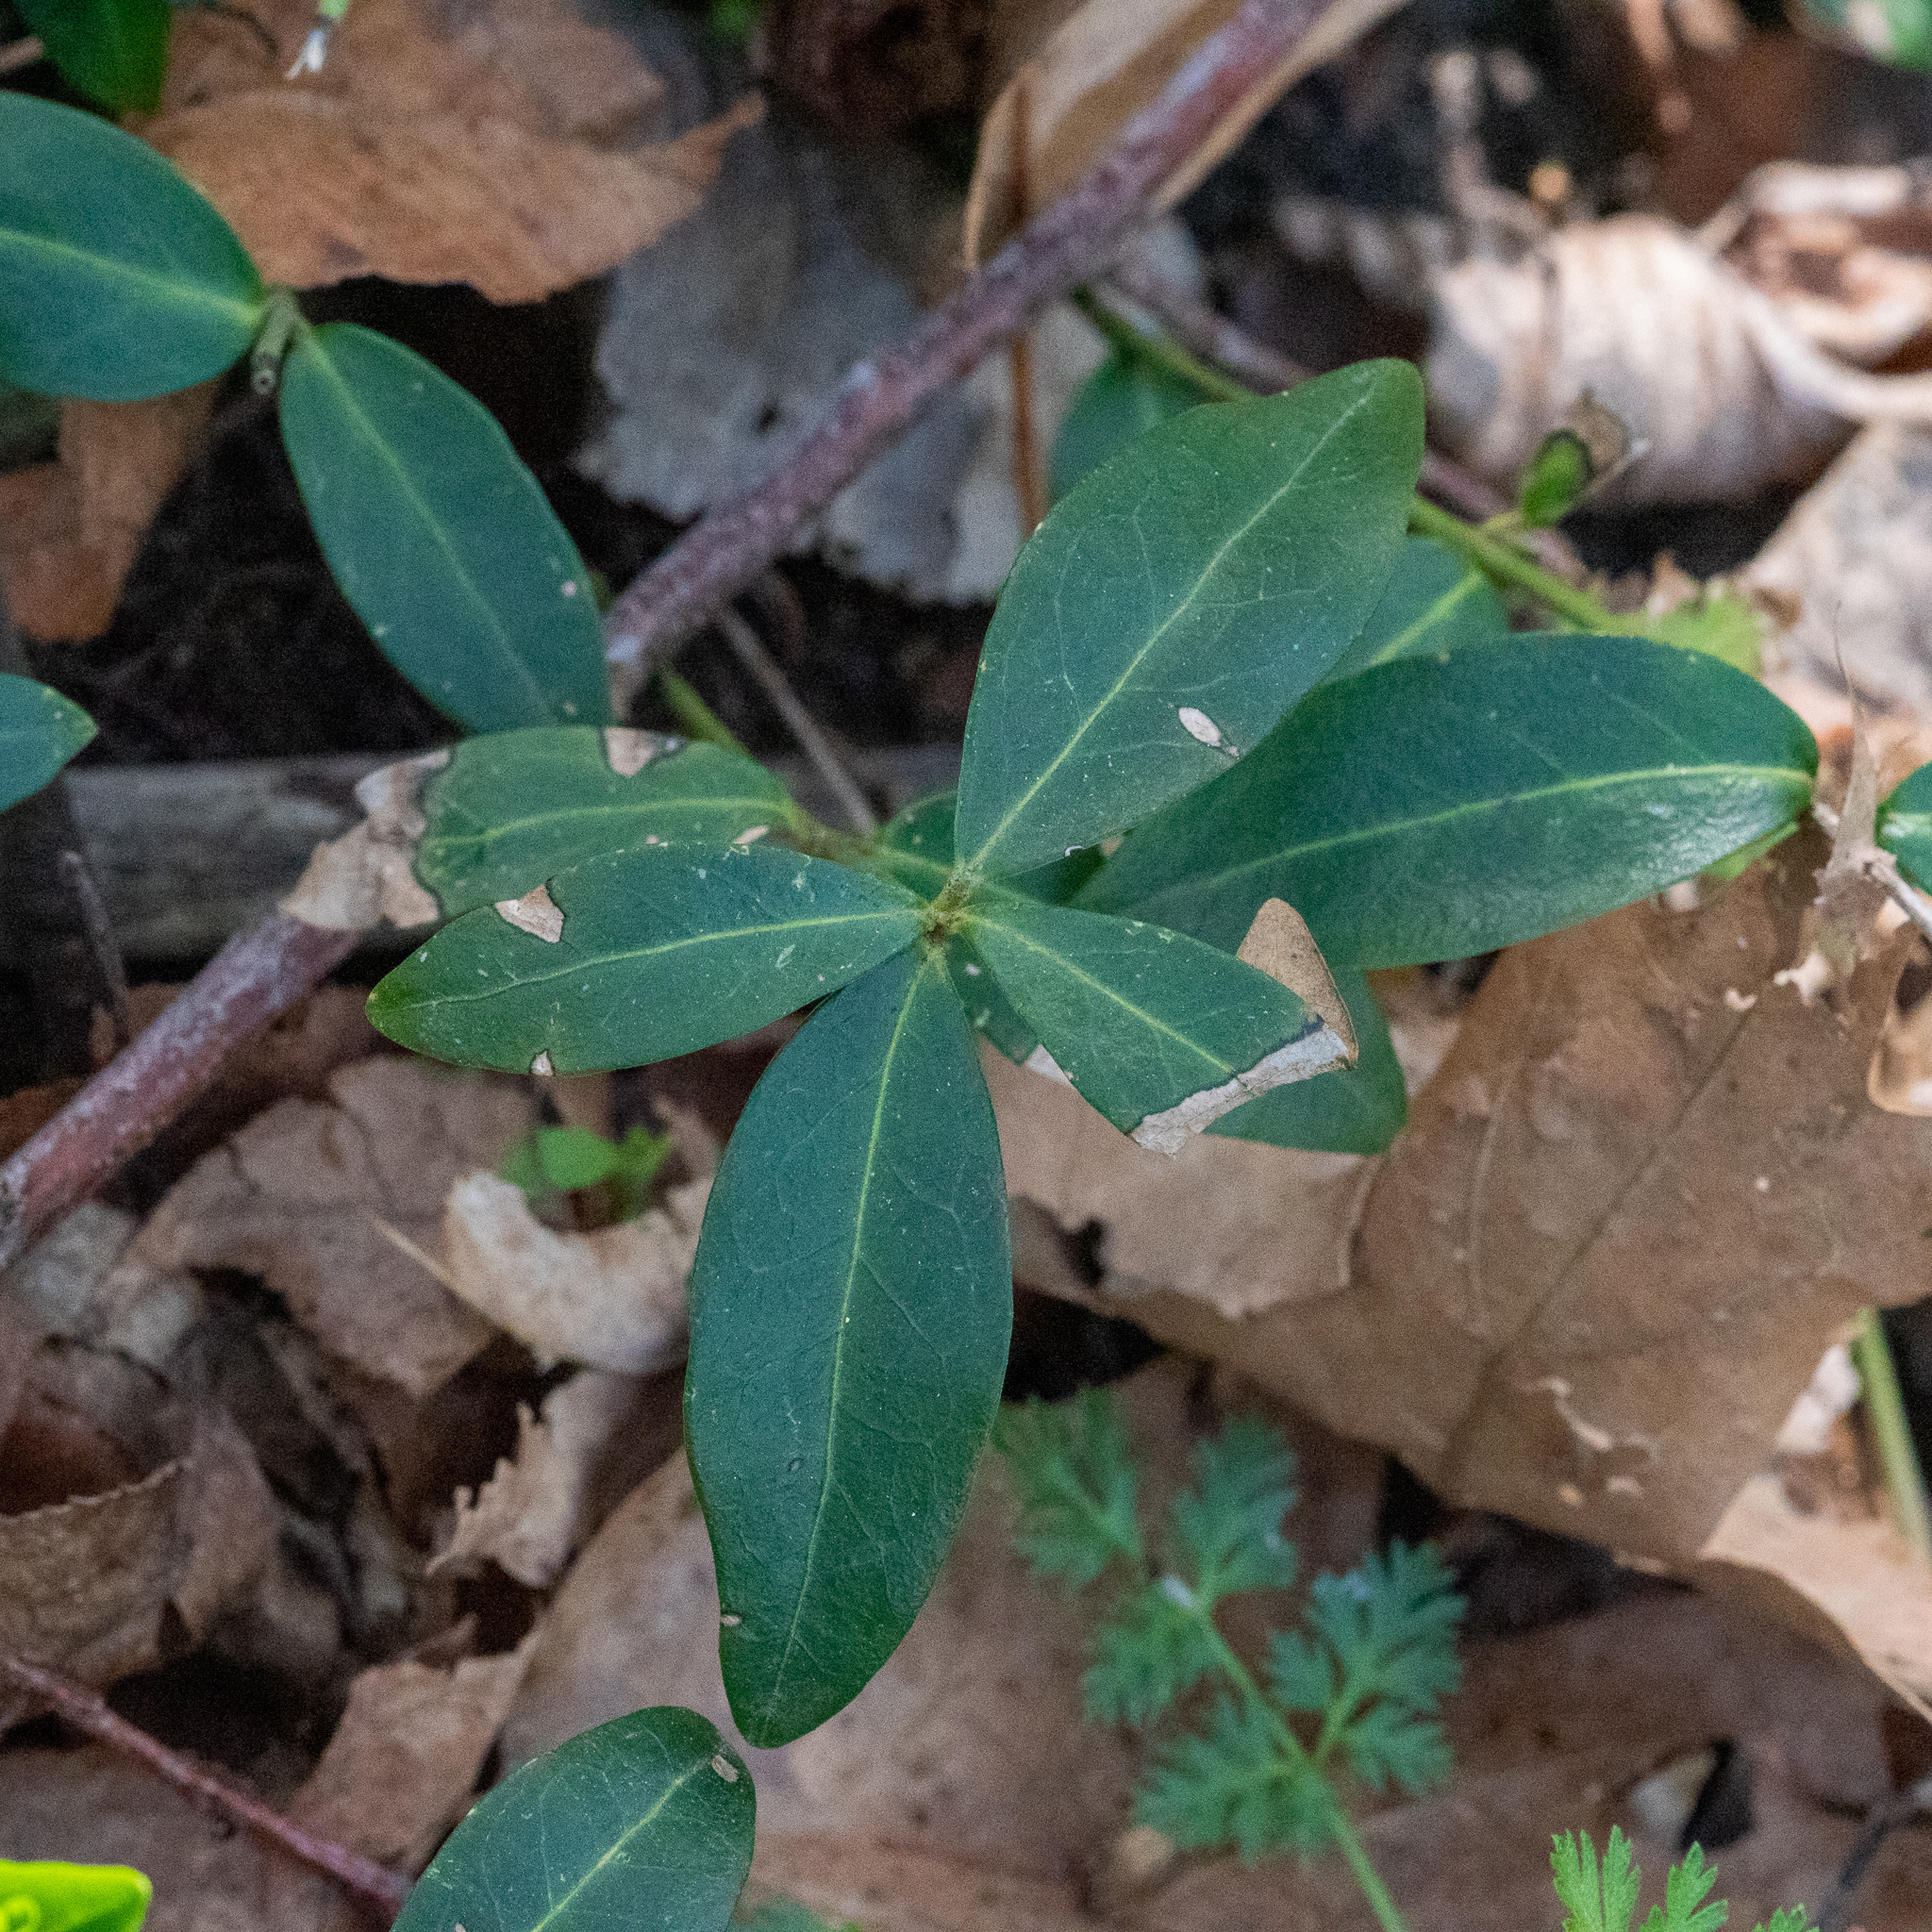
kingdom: Plantae
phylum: Tracheophyta
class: Magnoliopsida
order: Gentianales
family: Apocynaceae
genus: Vinca
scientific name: Vinca minor
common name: Lesser periwinkle
